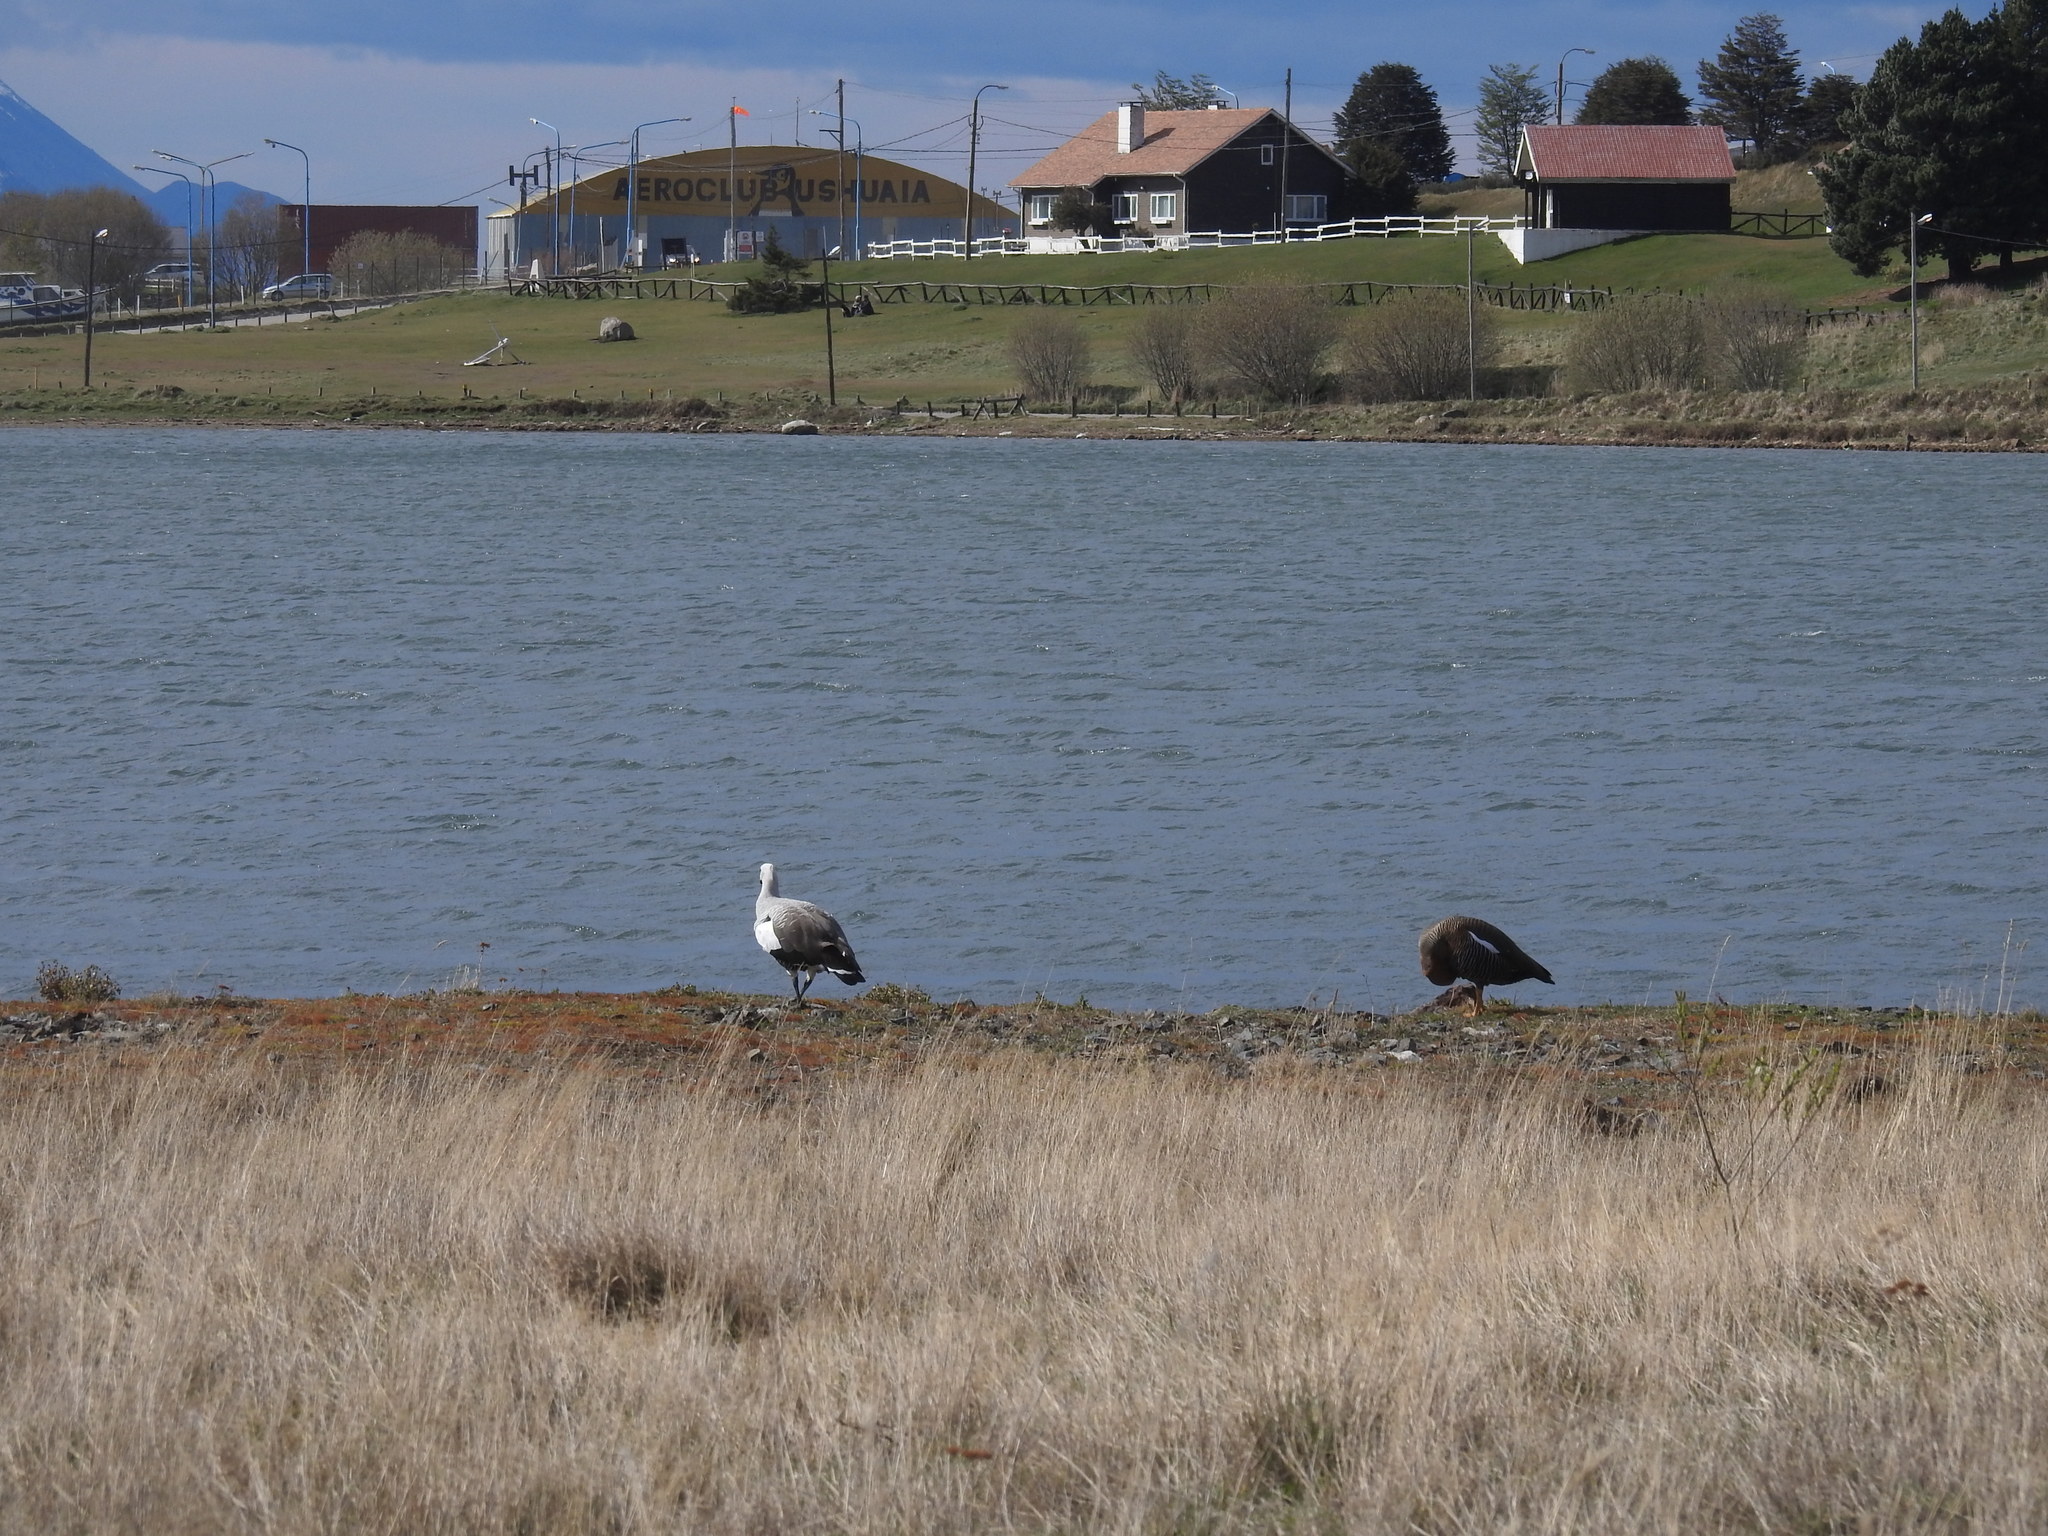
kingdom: Animalia
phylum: Chordata
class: Aves
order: Anseriformes
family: Anatidae
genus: Chloephaga
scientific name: Chloephaga picta
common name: Upland goose
